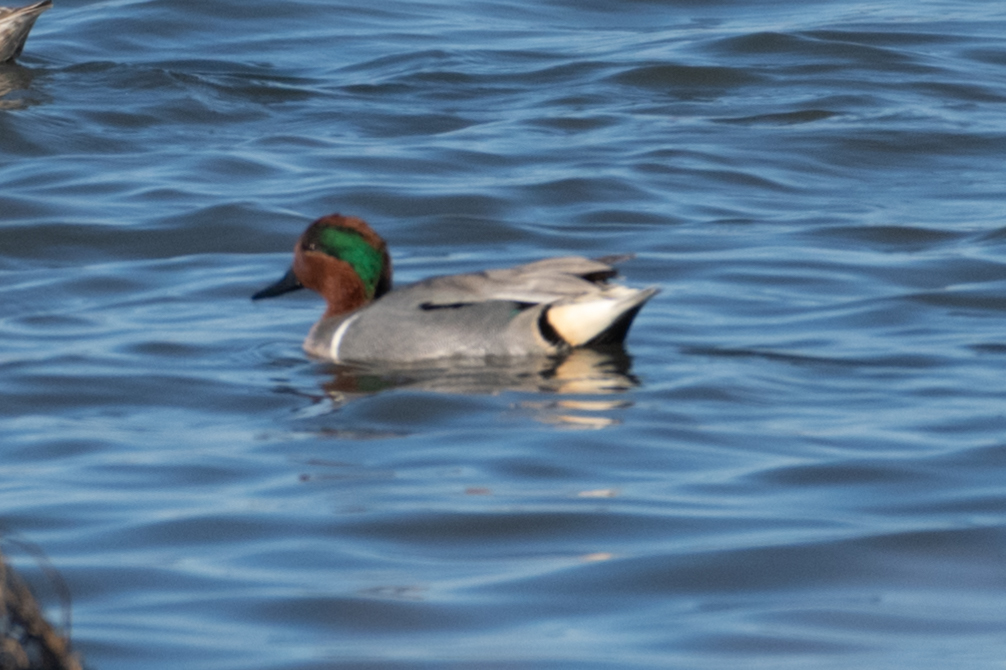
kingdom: Animalia
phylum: Chordata
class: Aves
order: Anseriformes
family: Anatidae
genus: Anas
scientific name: Anas crecca
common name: Eurasian teal
